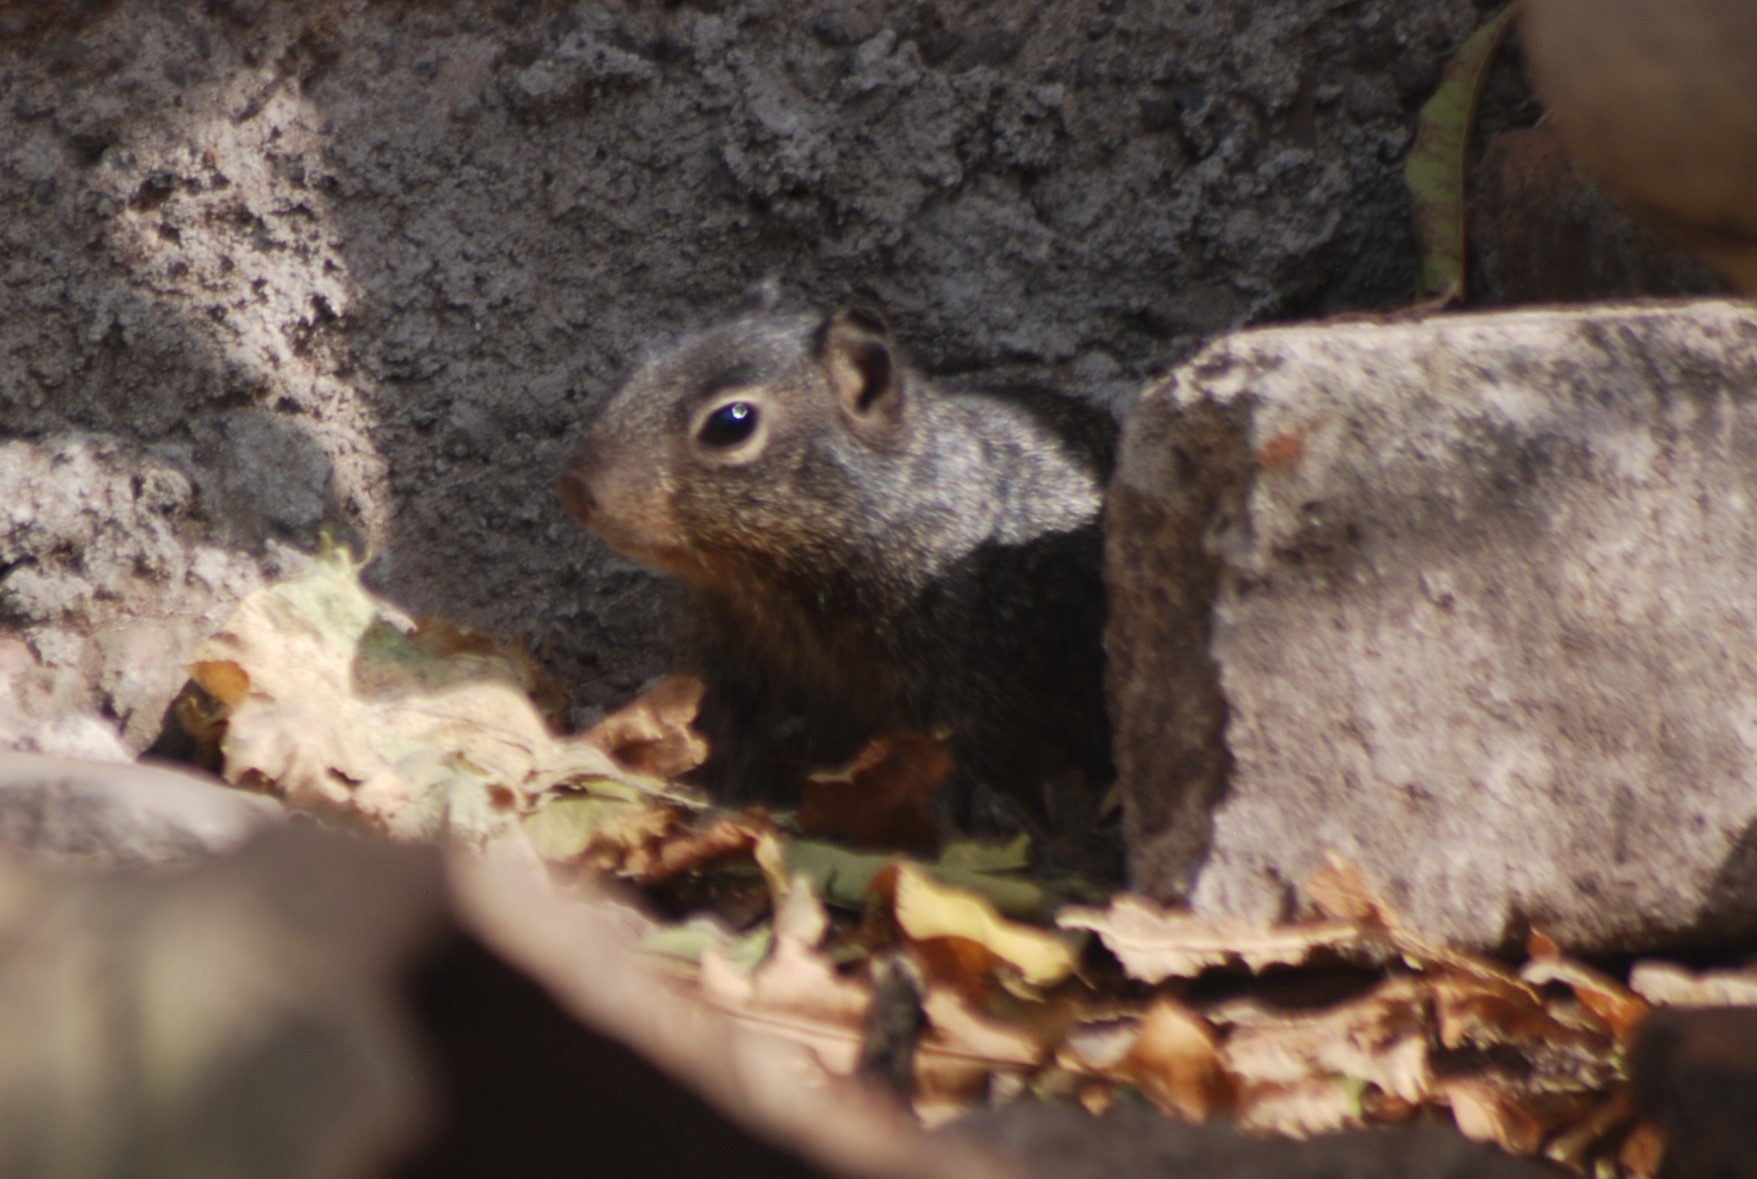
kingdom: Animalia
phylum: Chordata
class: Mammalia
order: Rodentia
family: Sciuridae
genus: Otospermophilus
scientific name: Otospermophilus variegatus
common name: Rock squirrel
